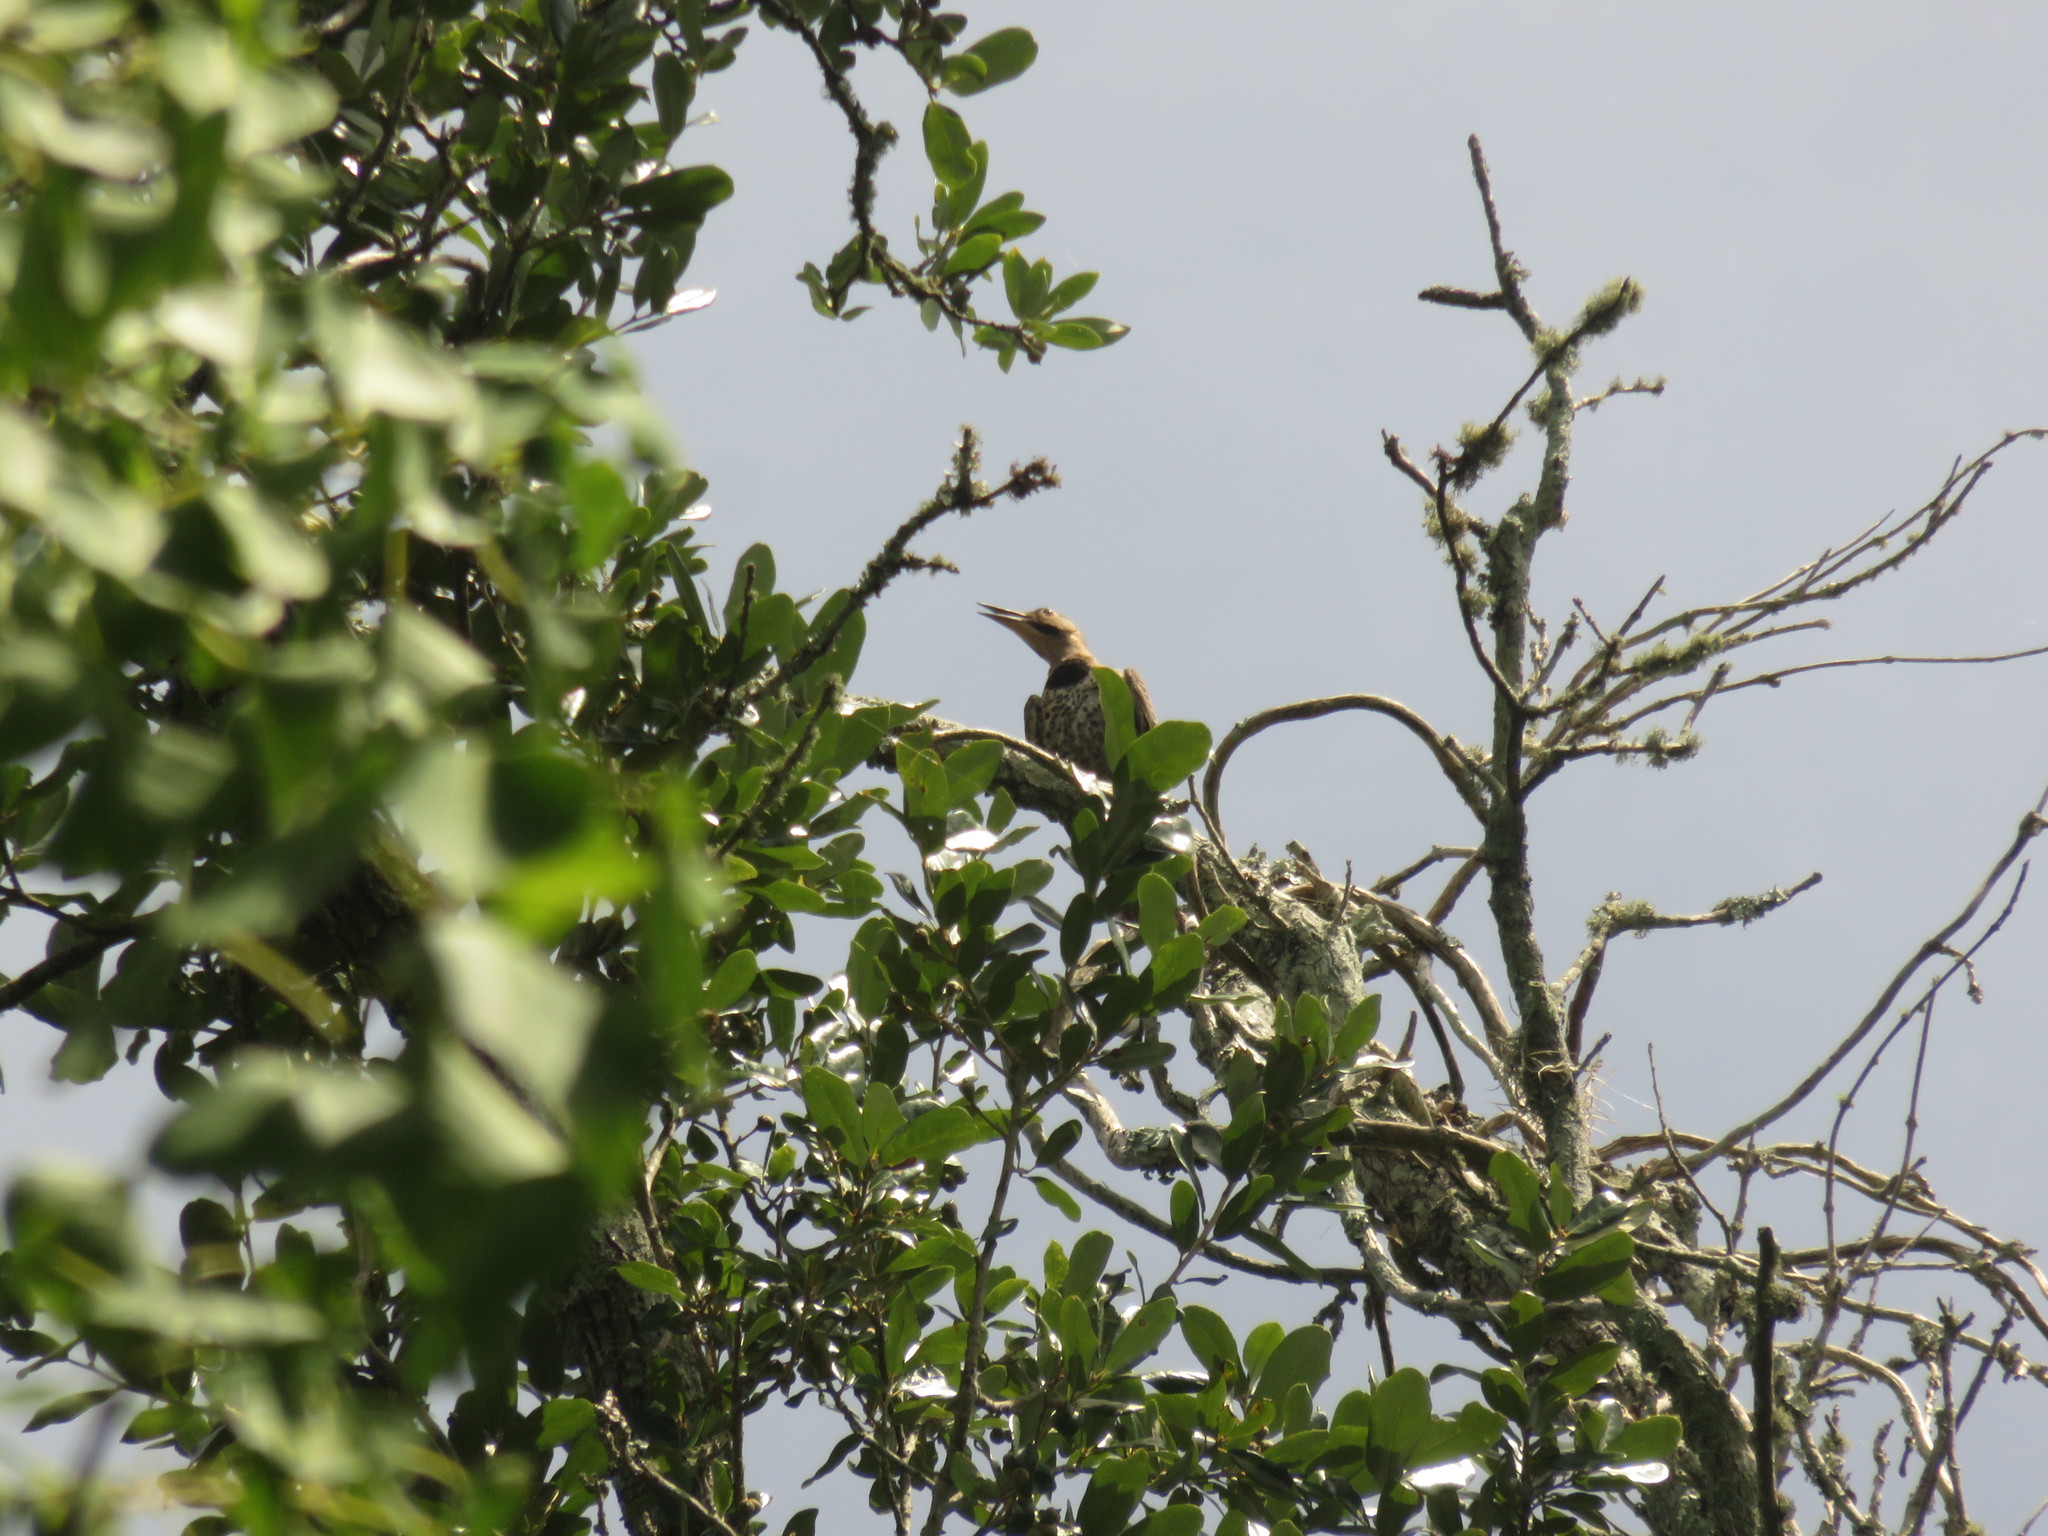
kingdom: Animalia
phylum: Chordata
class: Aves
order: Piciformes
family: Picidae
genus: Colaptes
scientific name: Colaptes auratus
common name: Northern flicker
